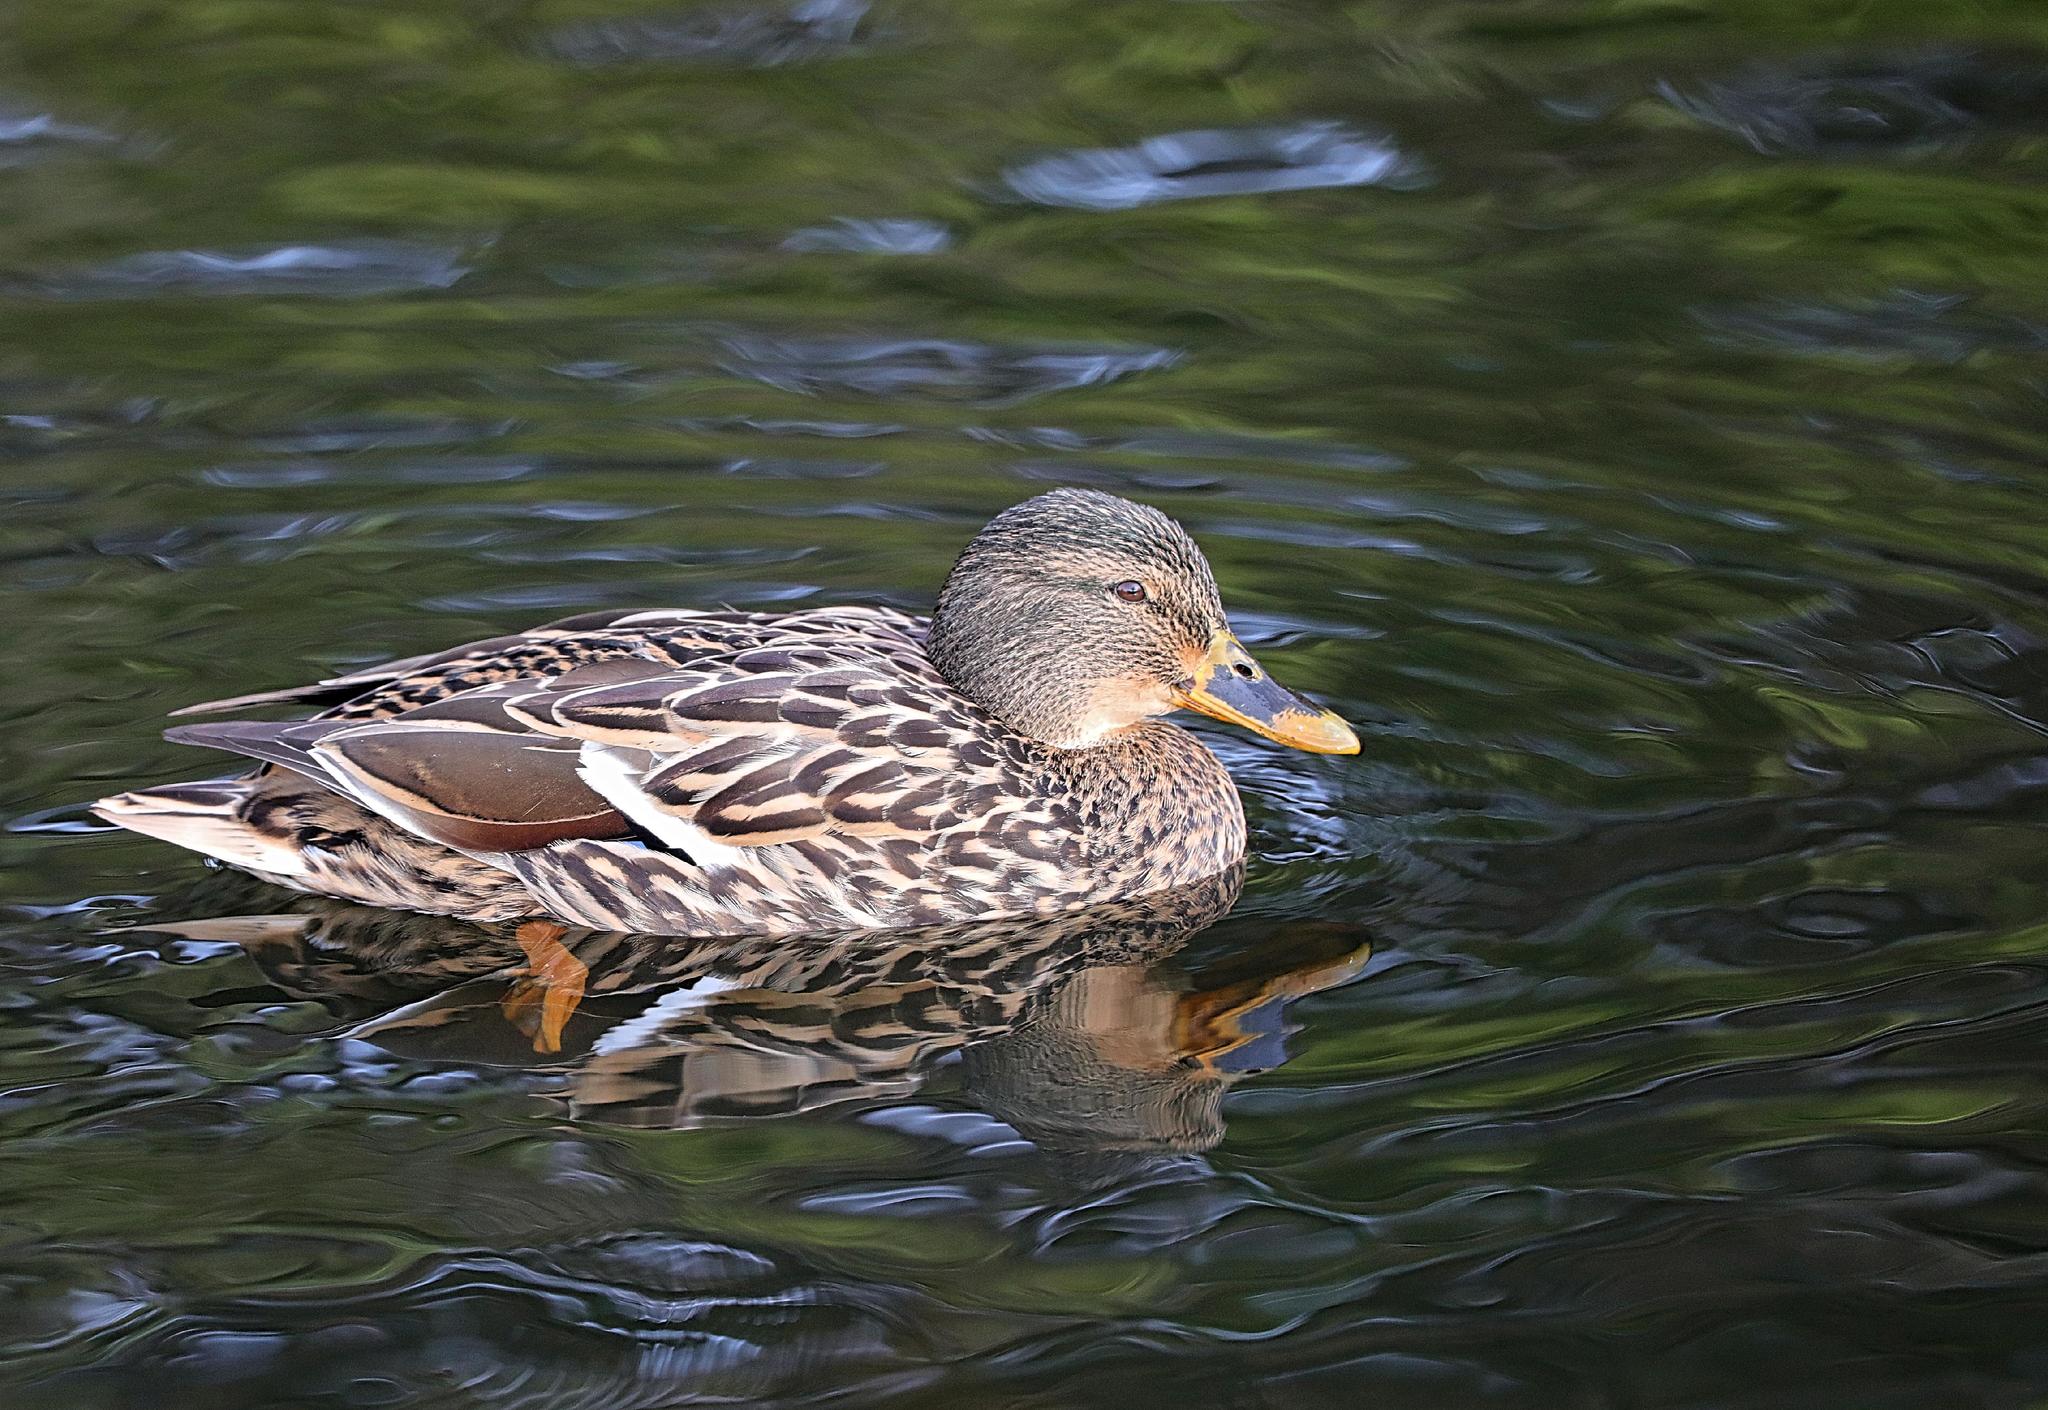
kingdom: Animalia
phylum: Chordata
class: Aves
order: Anseriformes
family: Anatidae
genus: Anas
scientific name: Anas platyrhynchos
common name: Mallard
